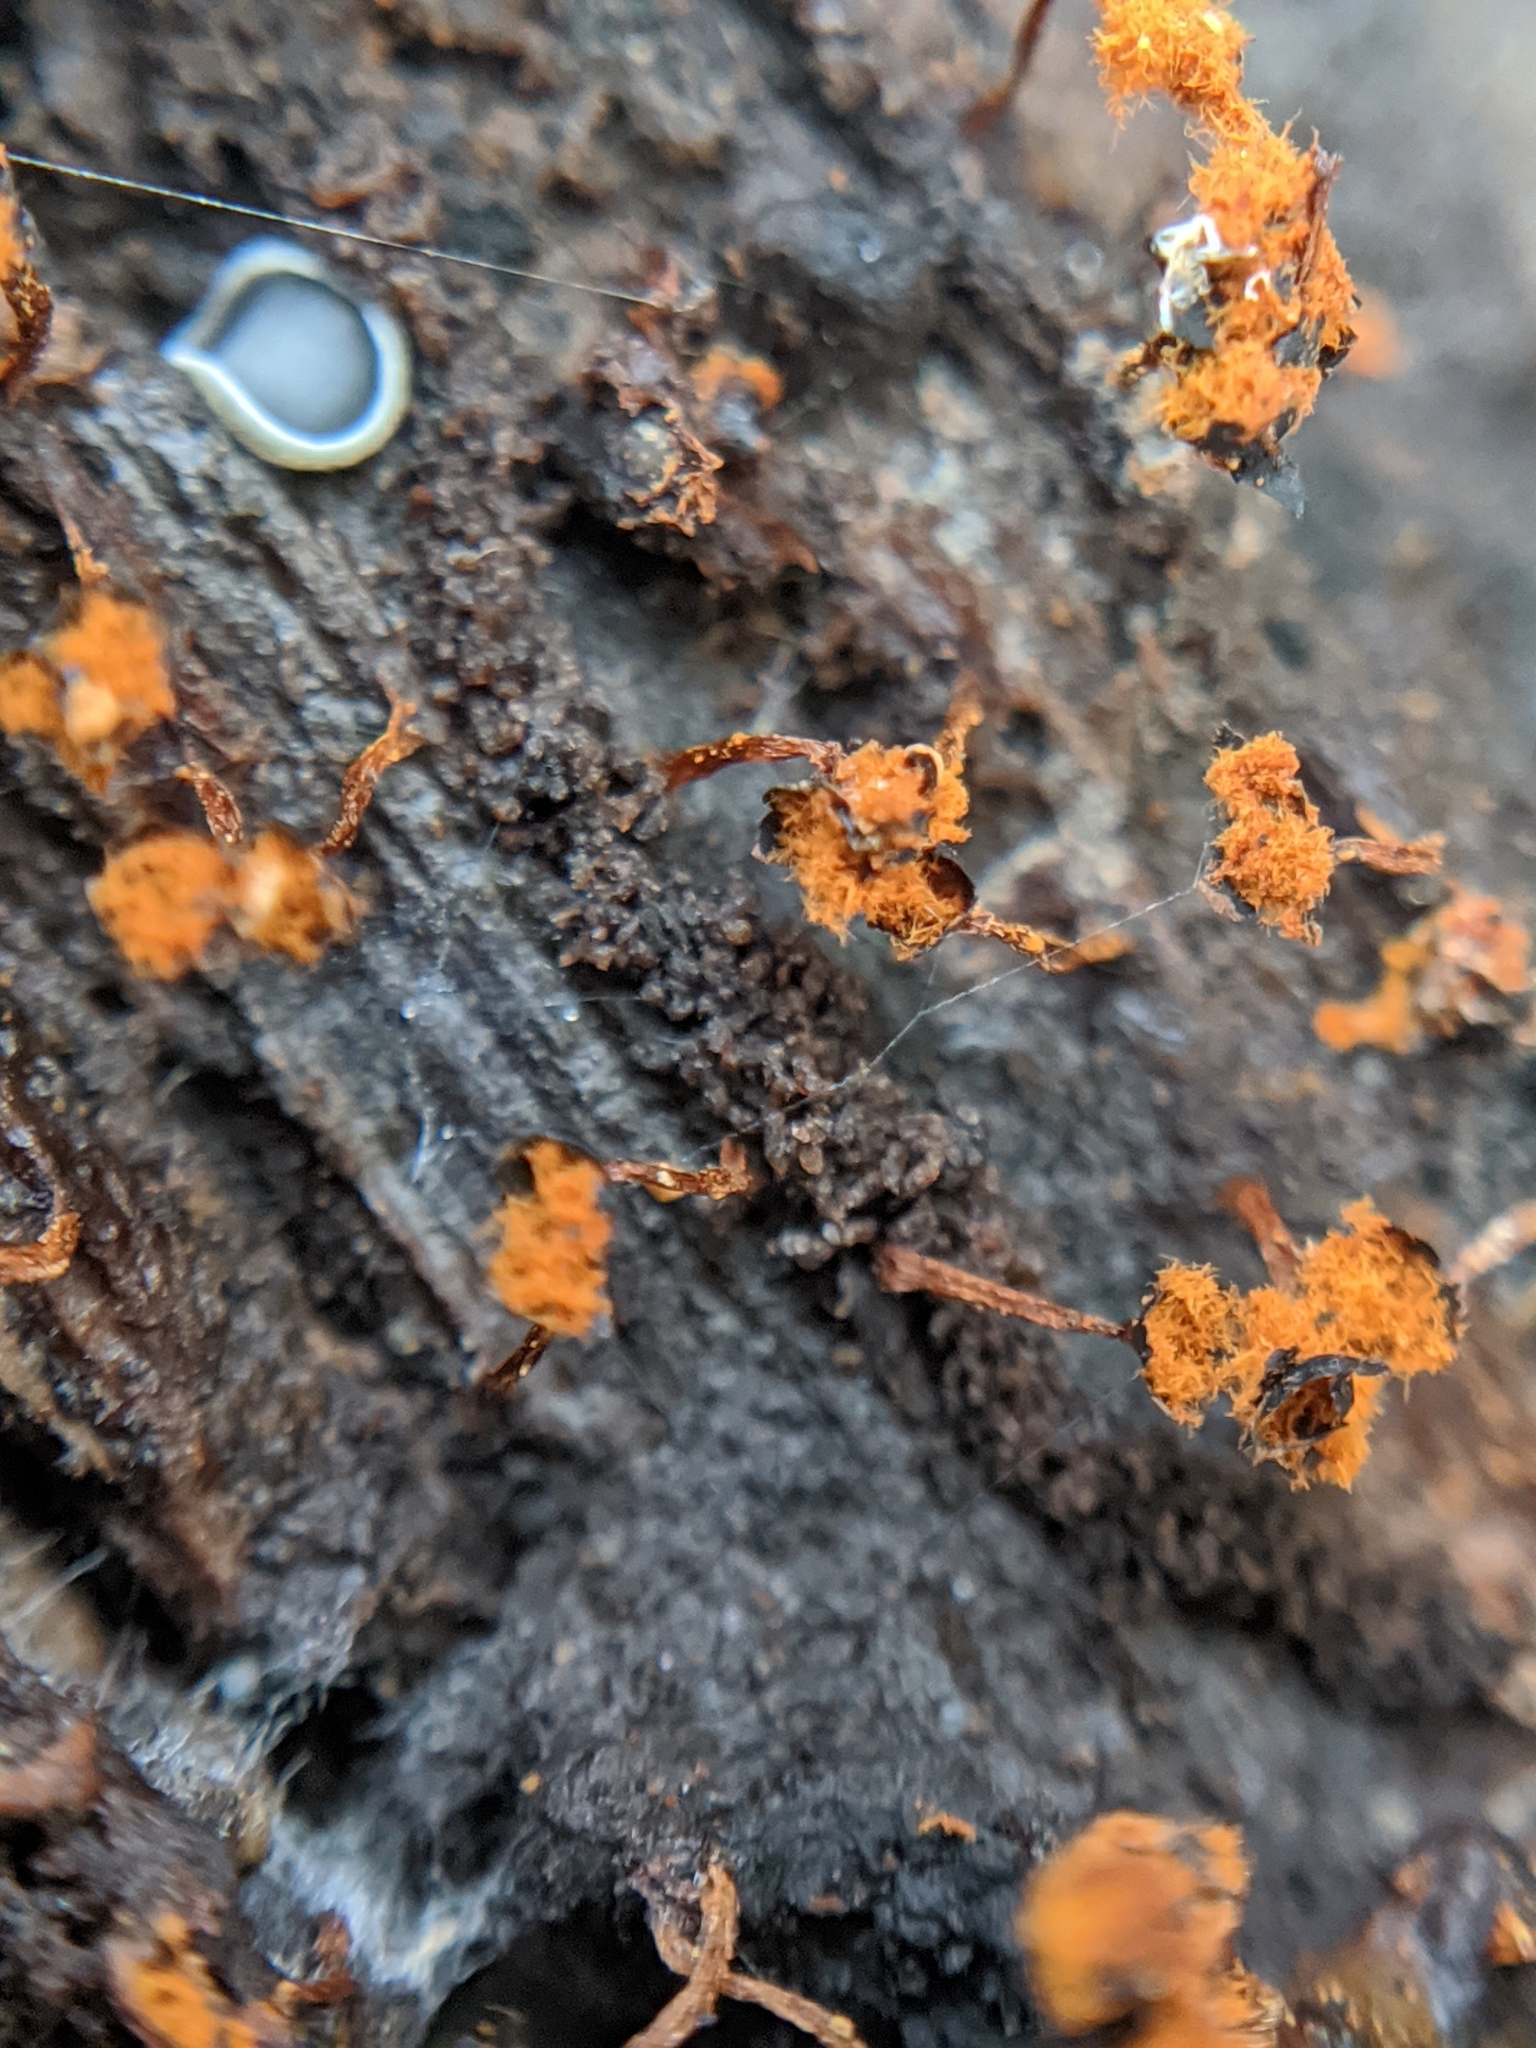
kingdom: Protozoa
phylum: Mycetozoa
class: Myxomycetes
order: Trichiales
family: Trichiaceae
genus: Metatrichia
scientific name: Metatrichia floriformis
